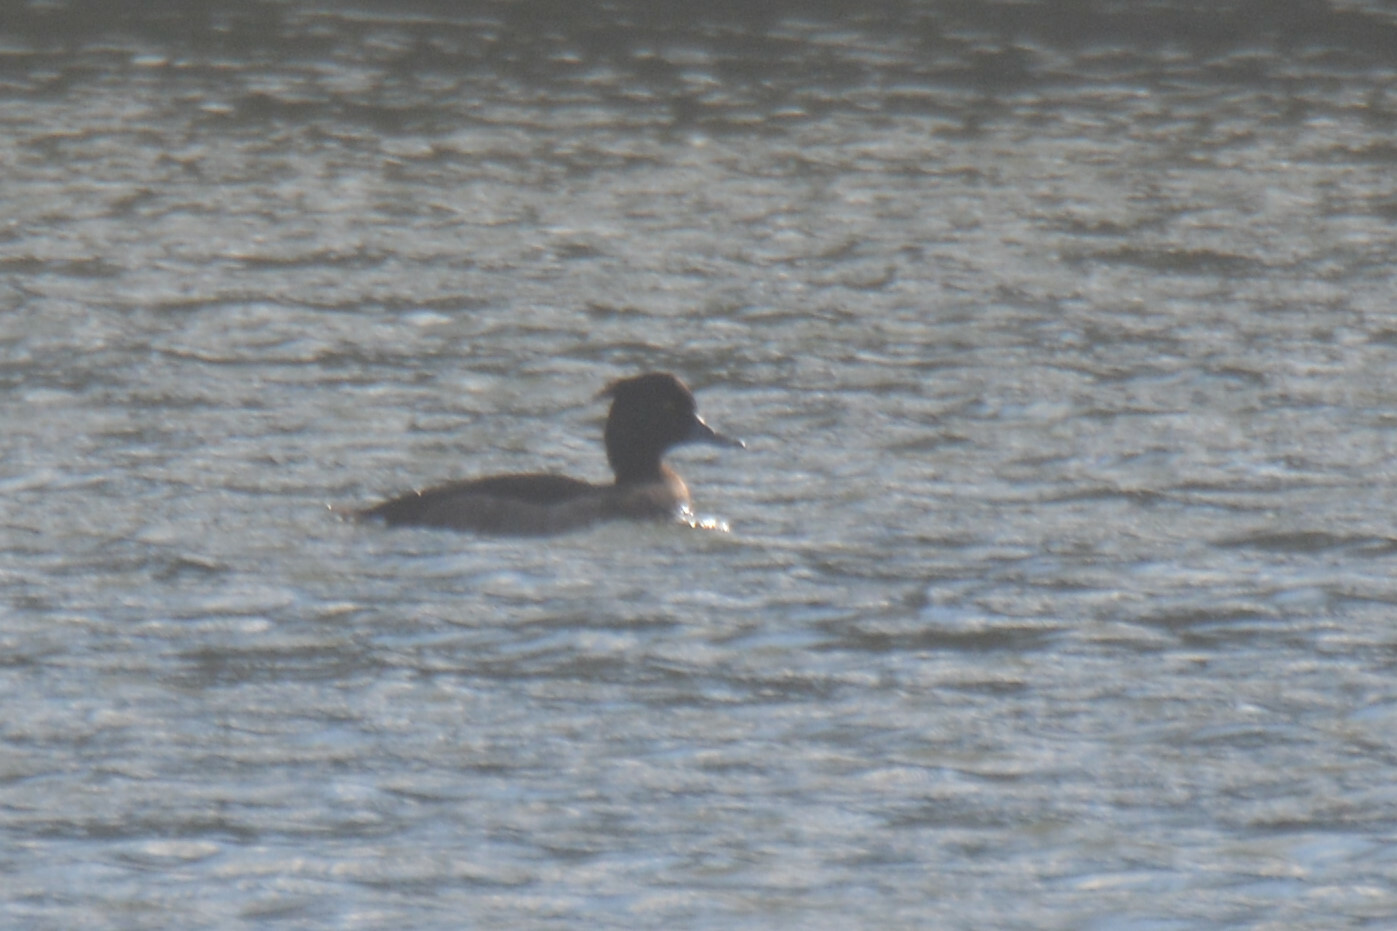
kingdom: Animalia
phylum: Chordata
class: Aves
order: Anseriformes
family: Anatidae
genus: Aythya
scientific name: Aythya fuligula
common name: Tufted duck
